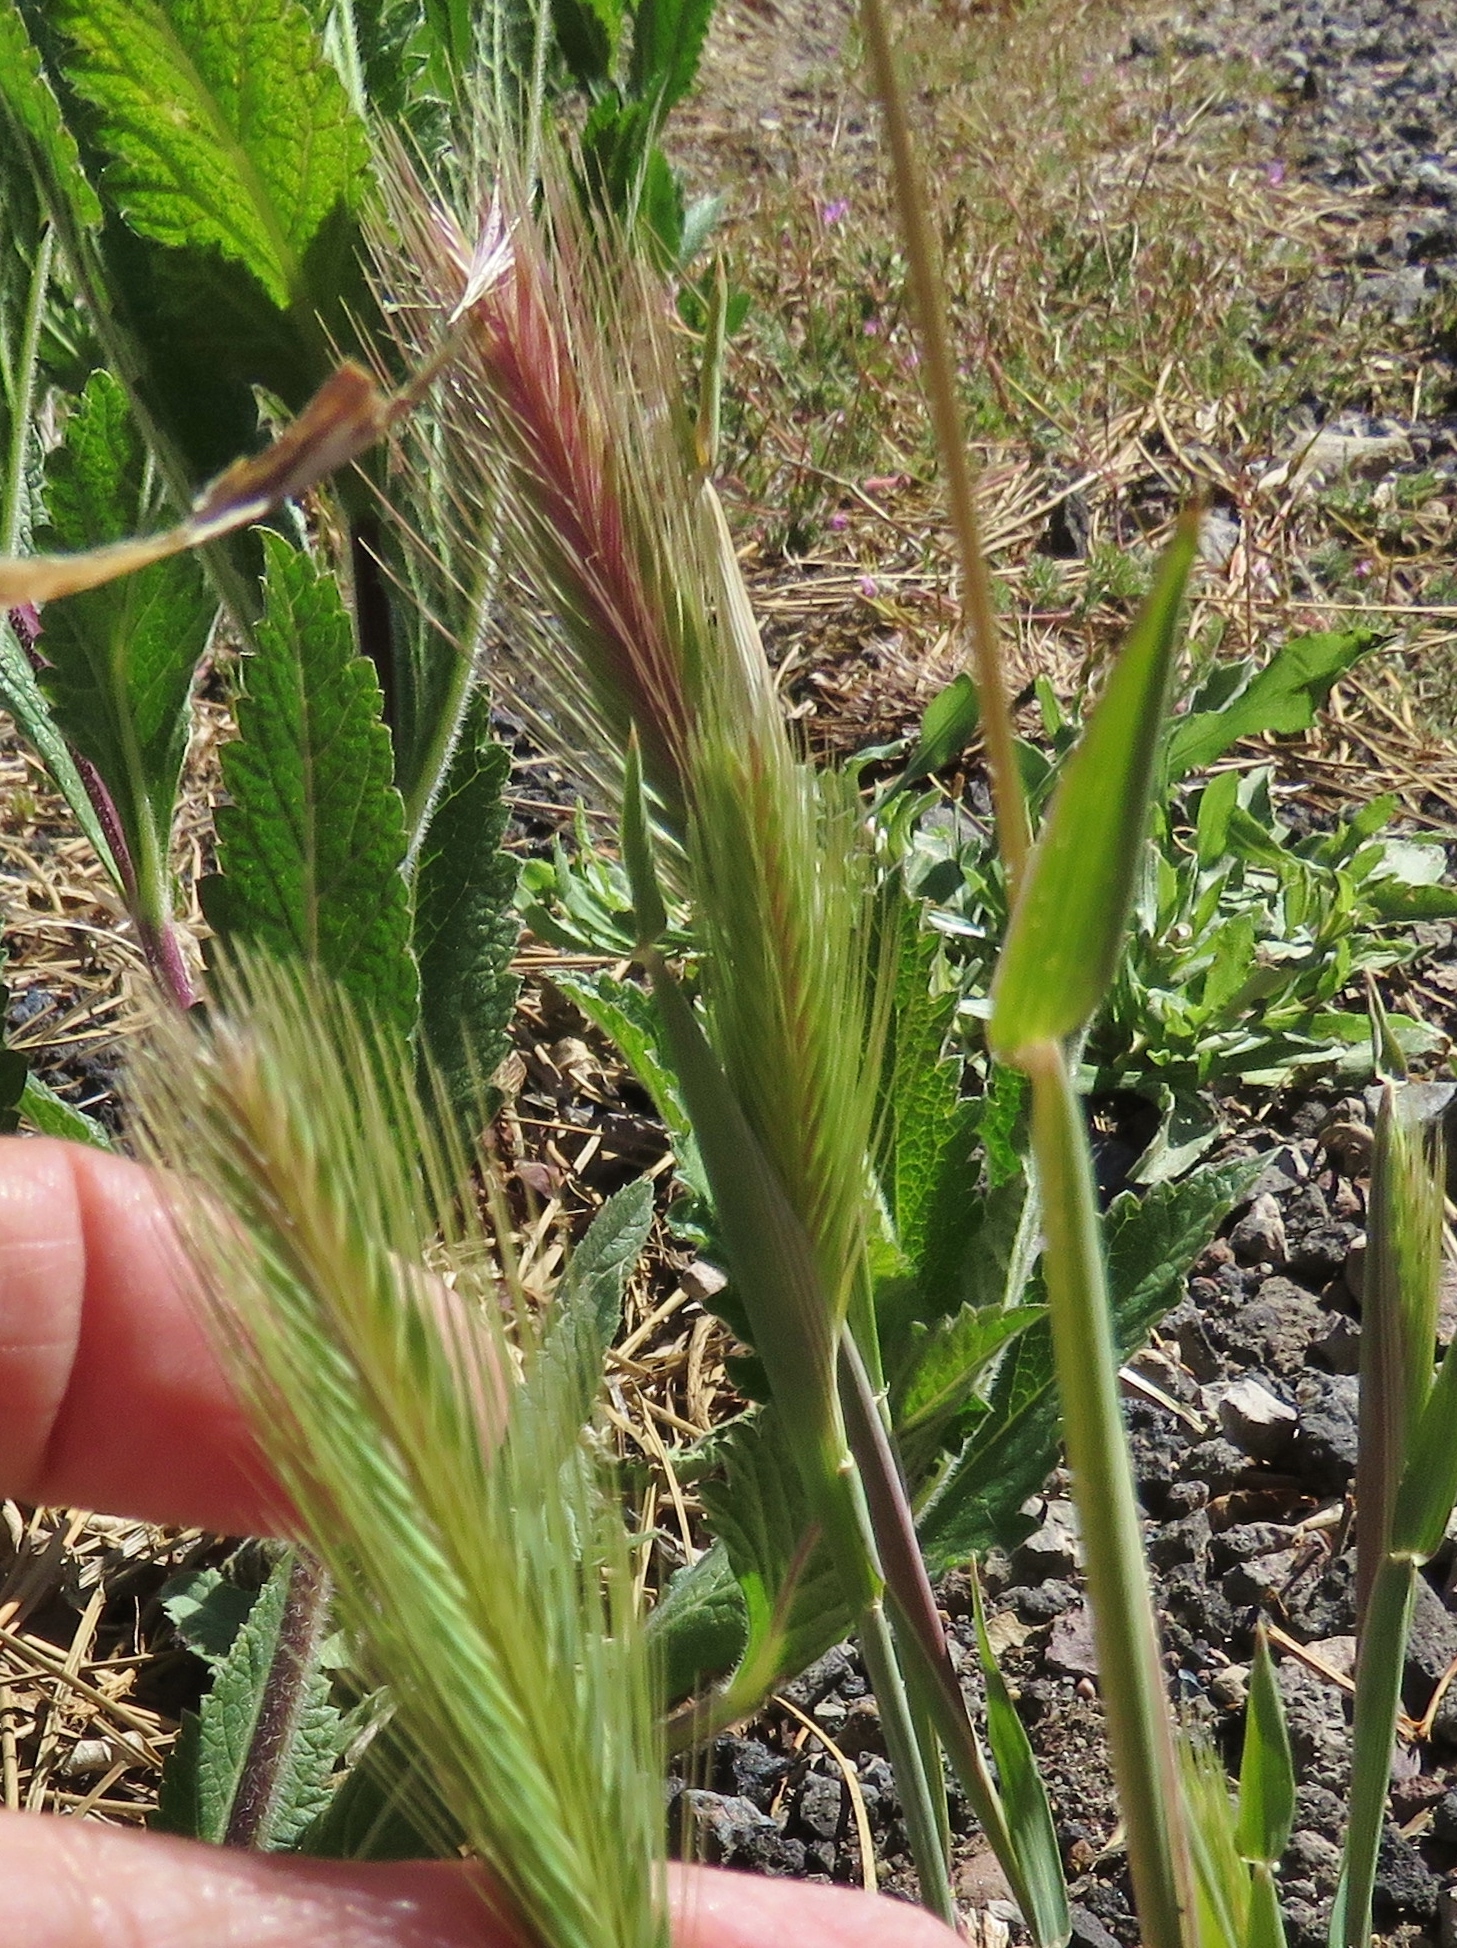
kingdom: Plantae
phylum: Tracheophyta
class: Liliopsida
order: Poales
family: Poaceae
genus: Hordeum
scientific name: Hordeum murinum
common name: Wall barley
